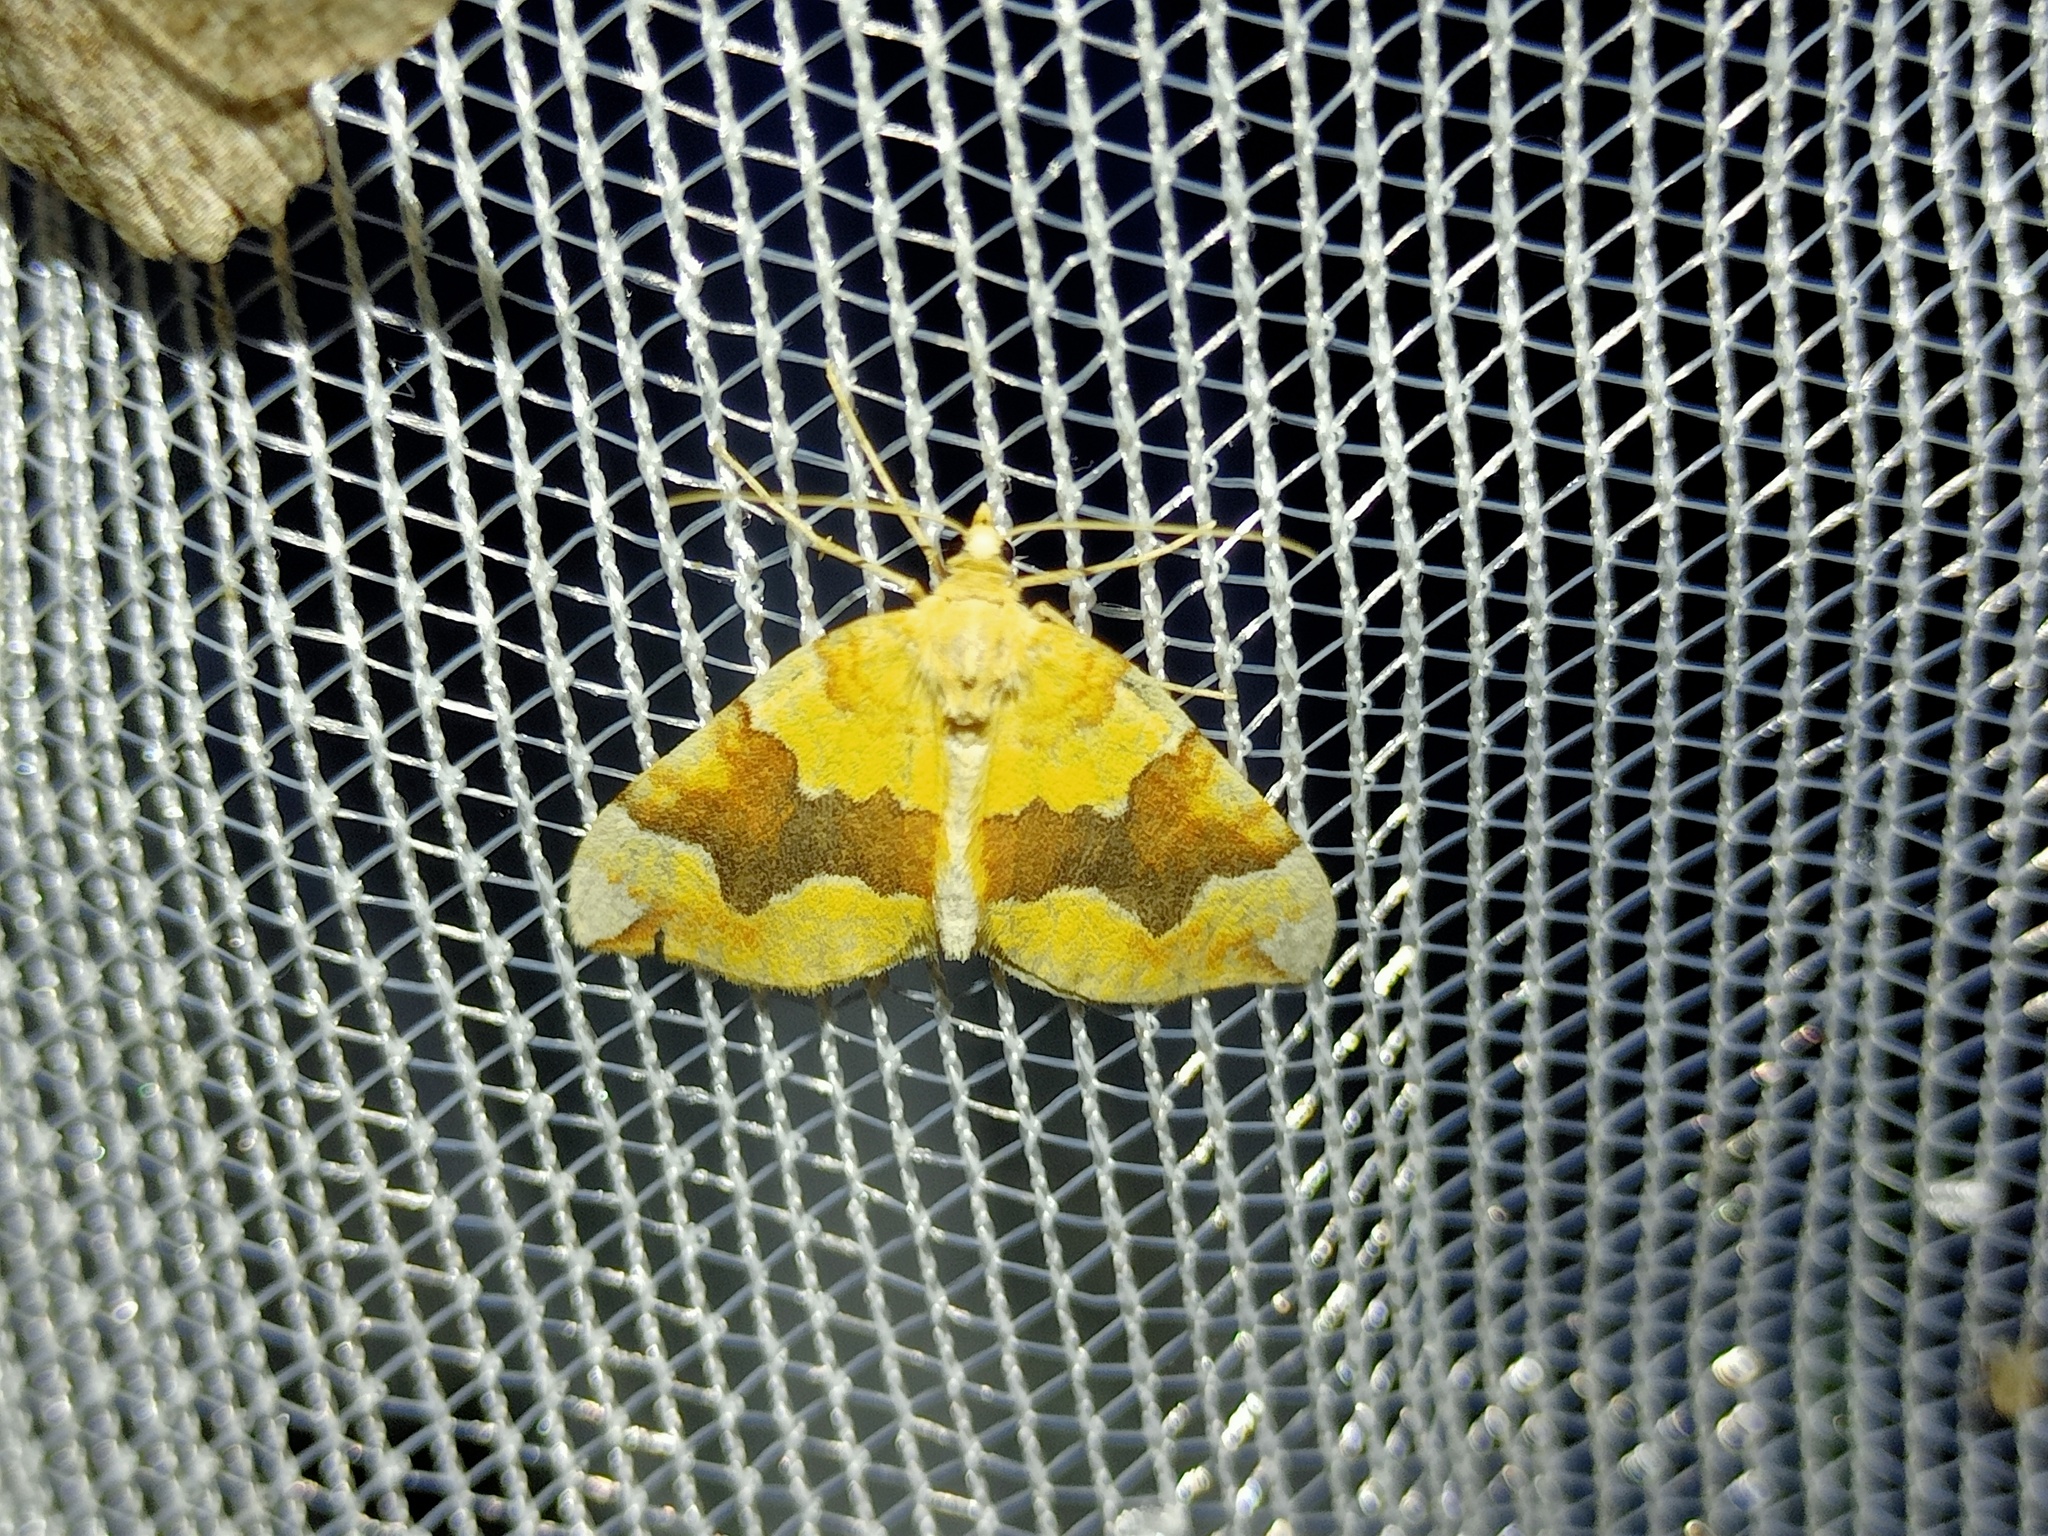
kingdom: Animalia
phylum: Arthropoda
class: Insecta
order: Lepidoptera
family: Geometridae
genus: Cidaria
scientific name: Cidaria fulvata
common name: Barred yellow
